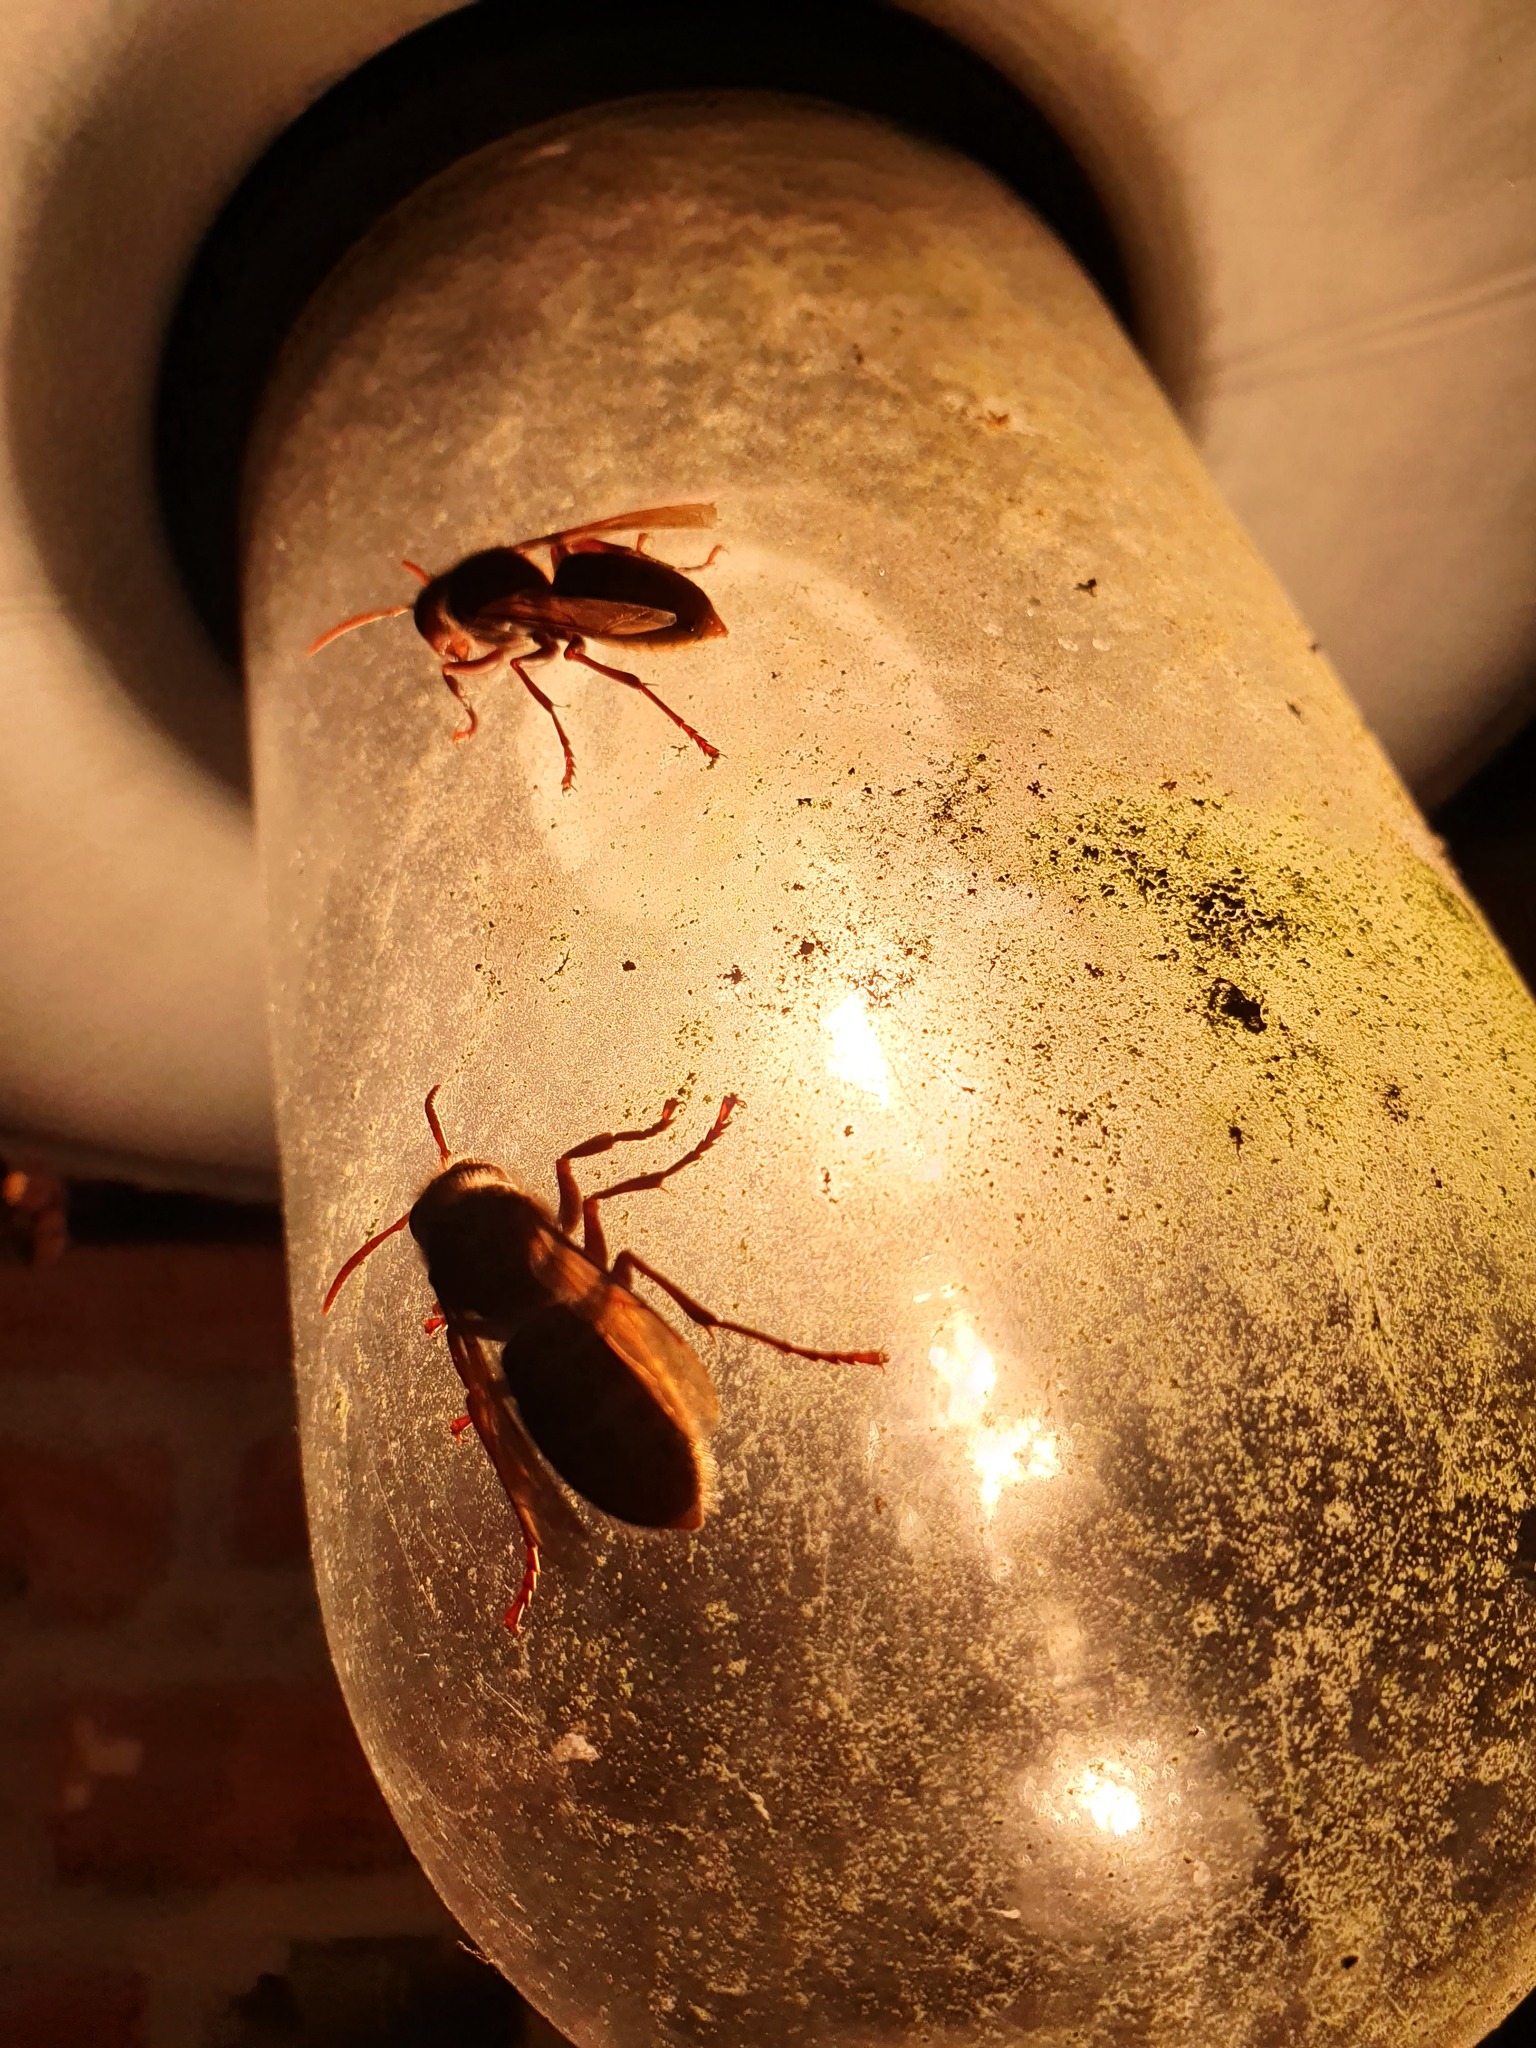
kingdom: Animalia
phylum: Arthropoda
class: Insecta
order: Hymenoptera
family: Vespidae
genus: Vespa
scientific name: Vespa crabro
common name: Hornet
